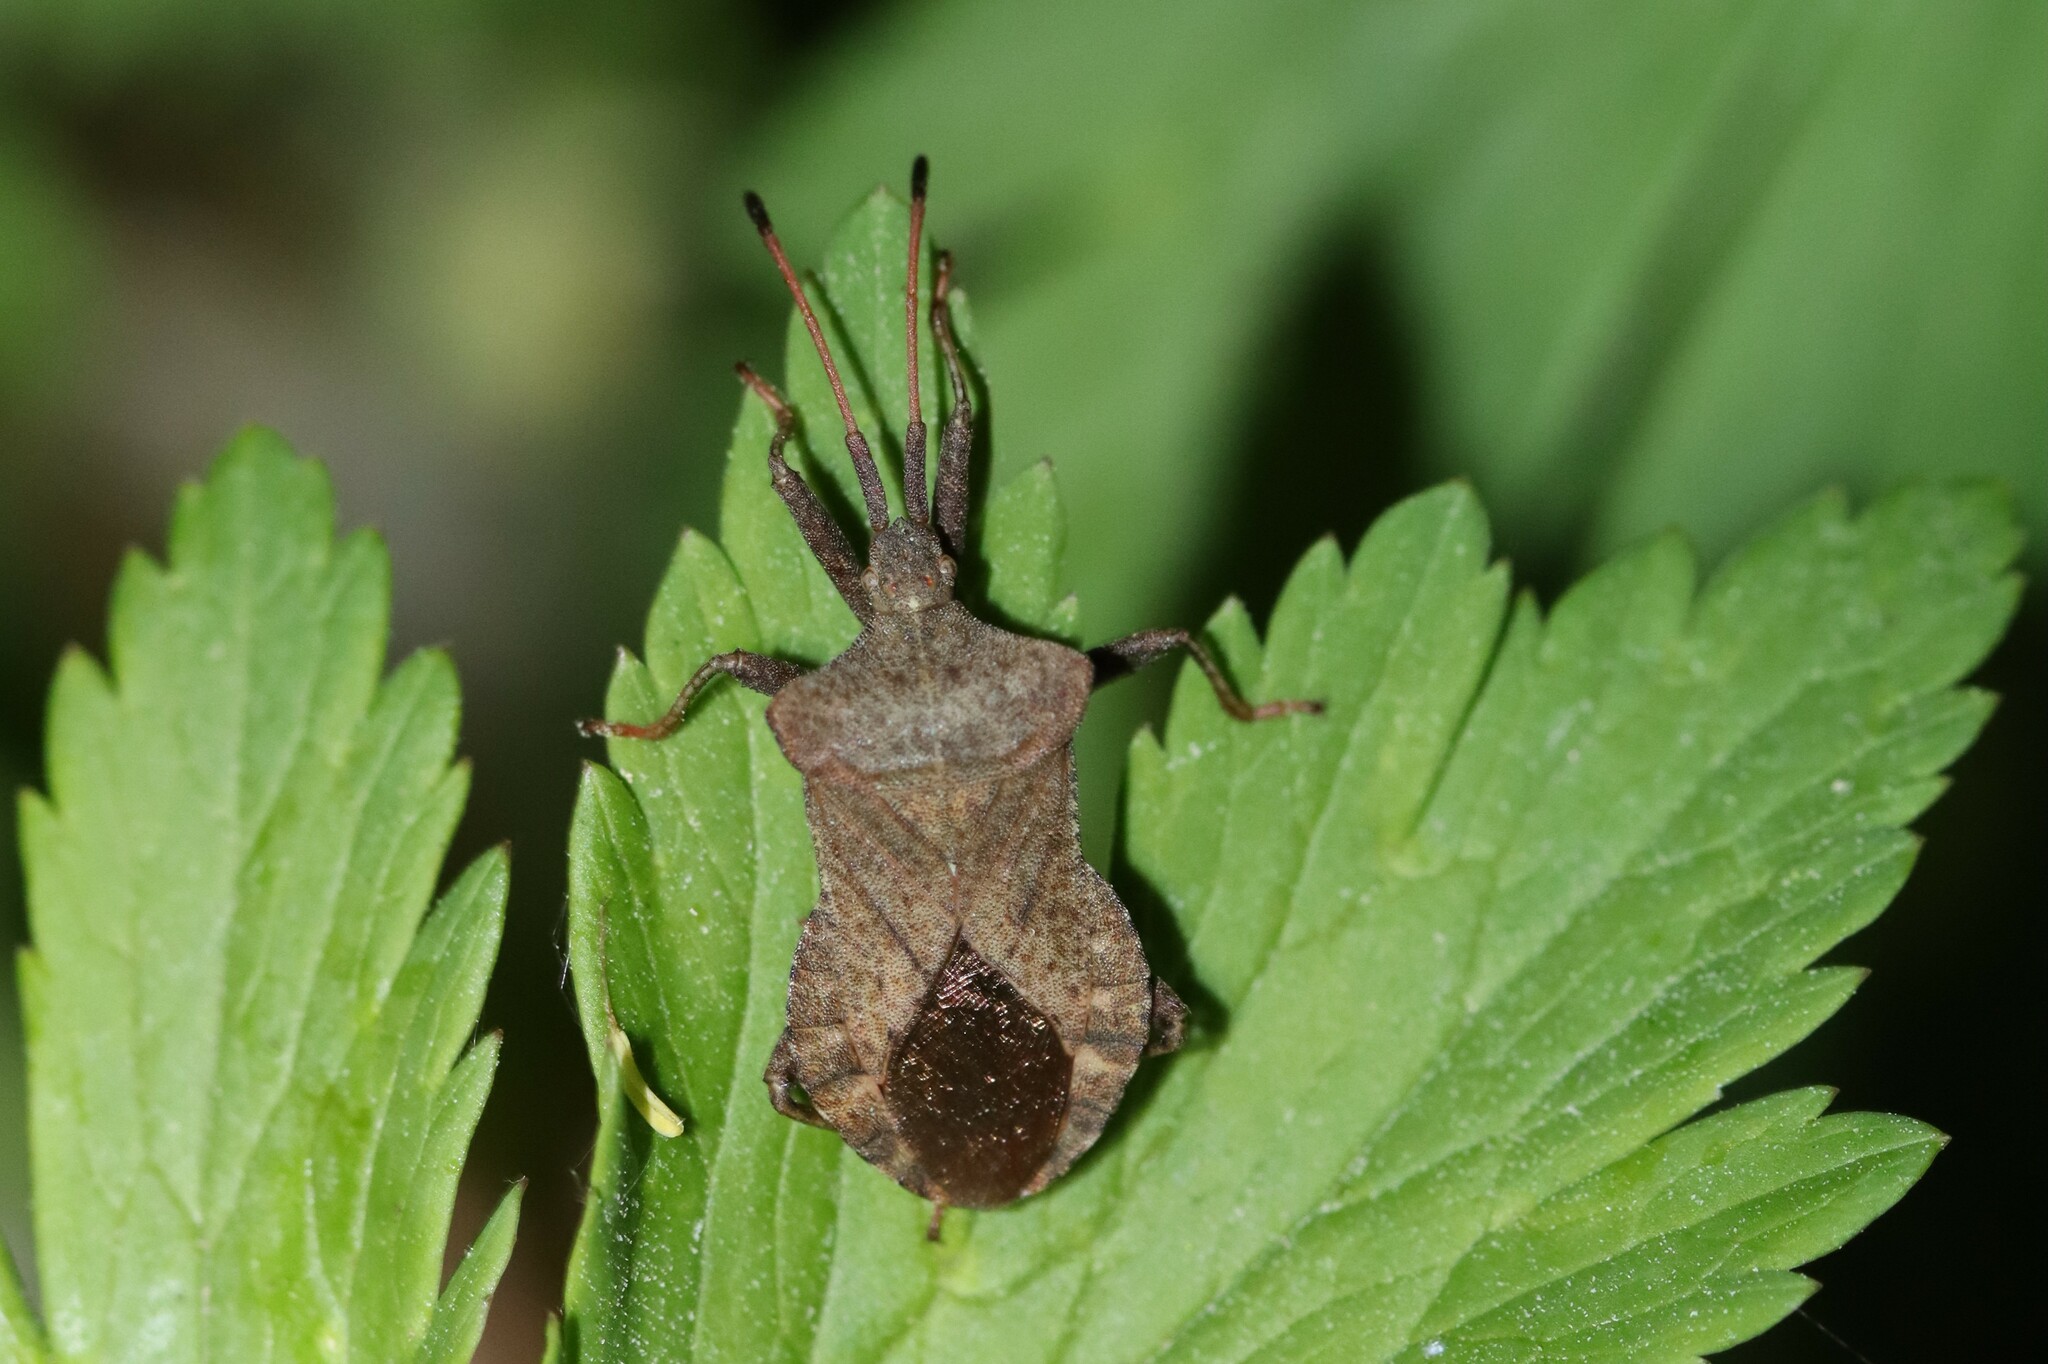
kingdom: Animalia
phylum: Arthropoda
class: Insecta
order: Hemiptera
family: Coreidae
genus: Coreus
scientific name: Coreus marginatus
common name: Dock bug
